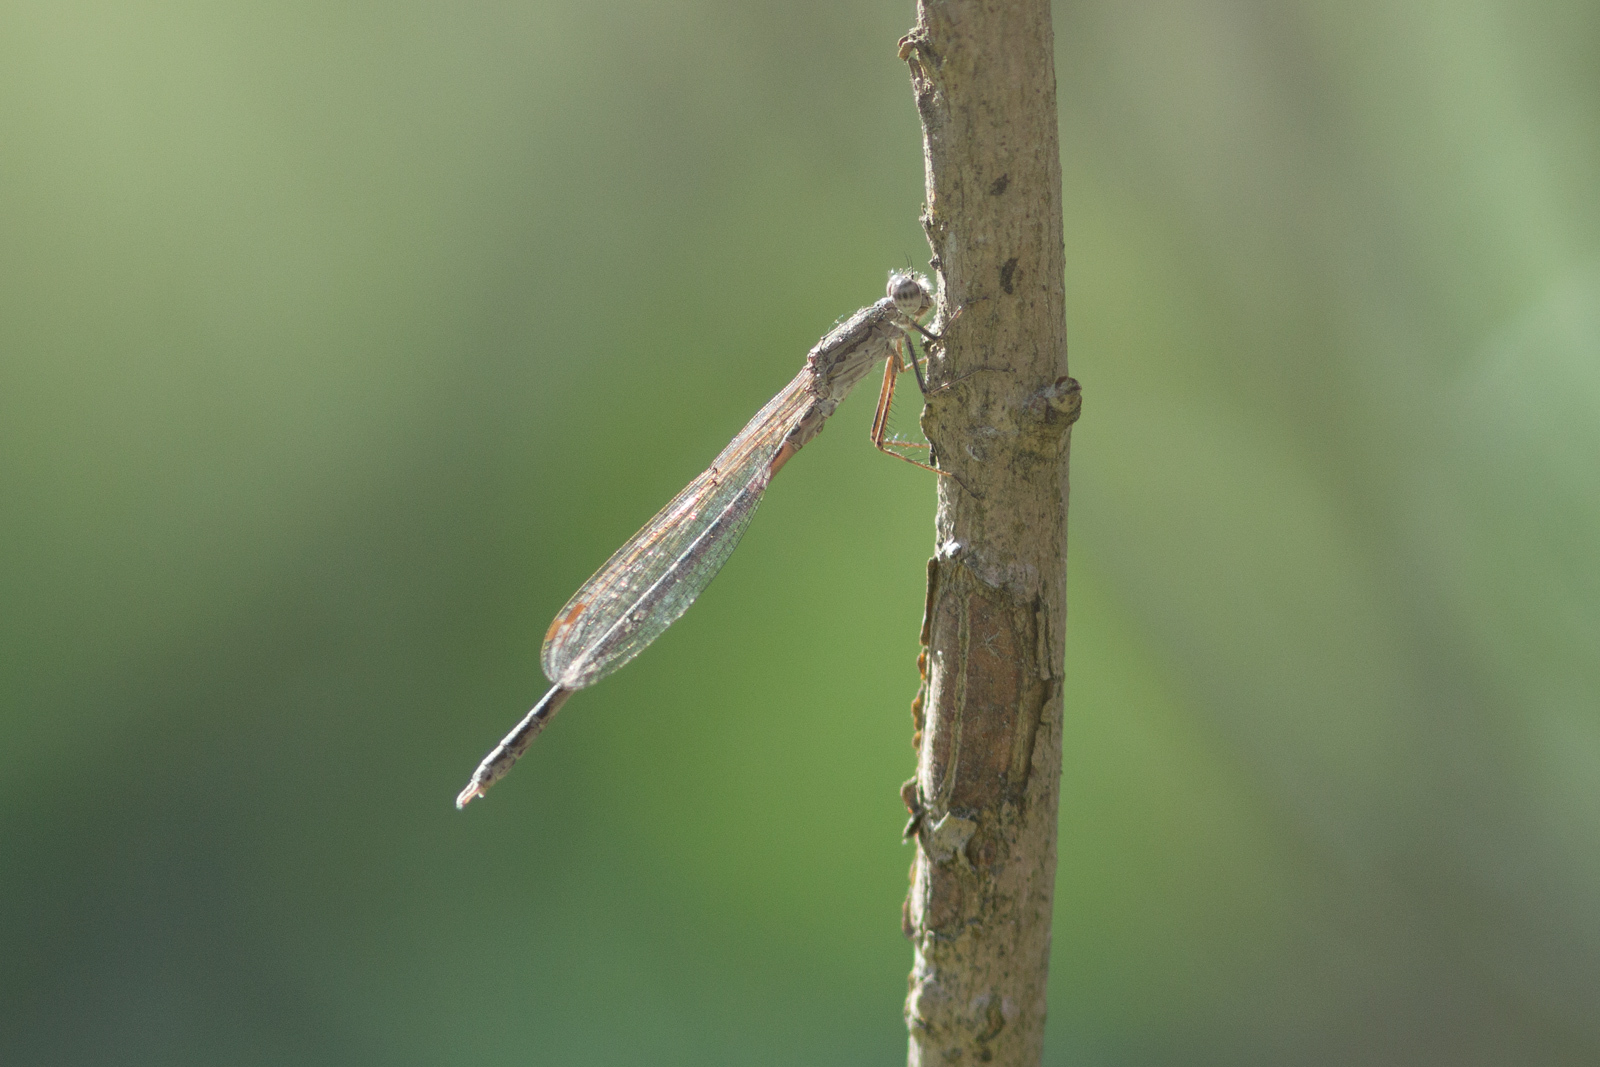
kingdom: Animalia
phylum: Arthropoda
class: Insecta
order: Odonata
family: Lestidae
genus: Sympecma
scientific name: Sympecma paedisca
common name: Siberian winter damsel
